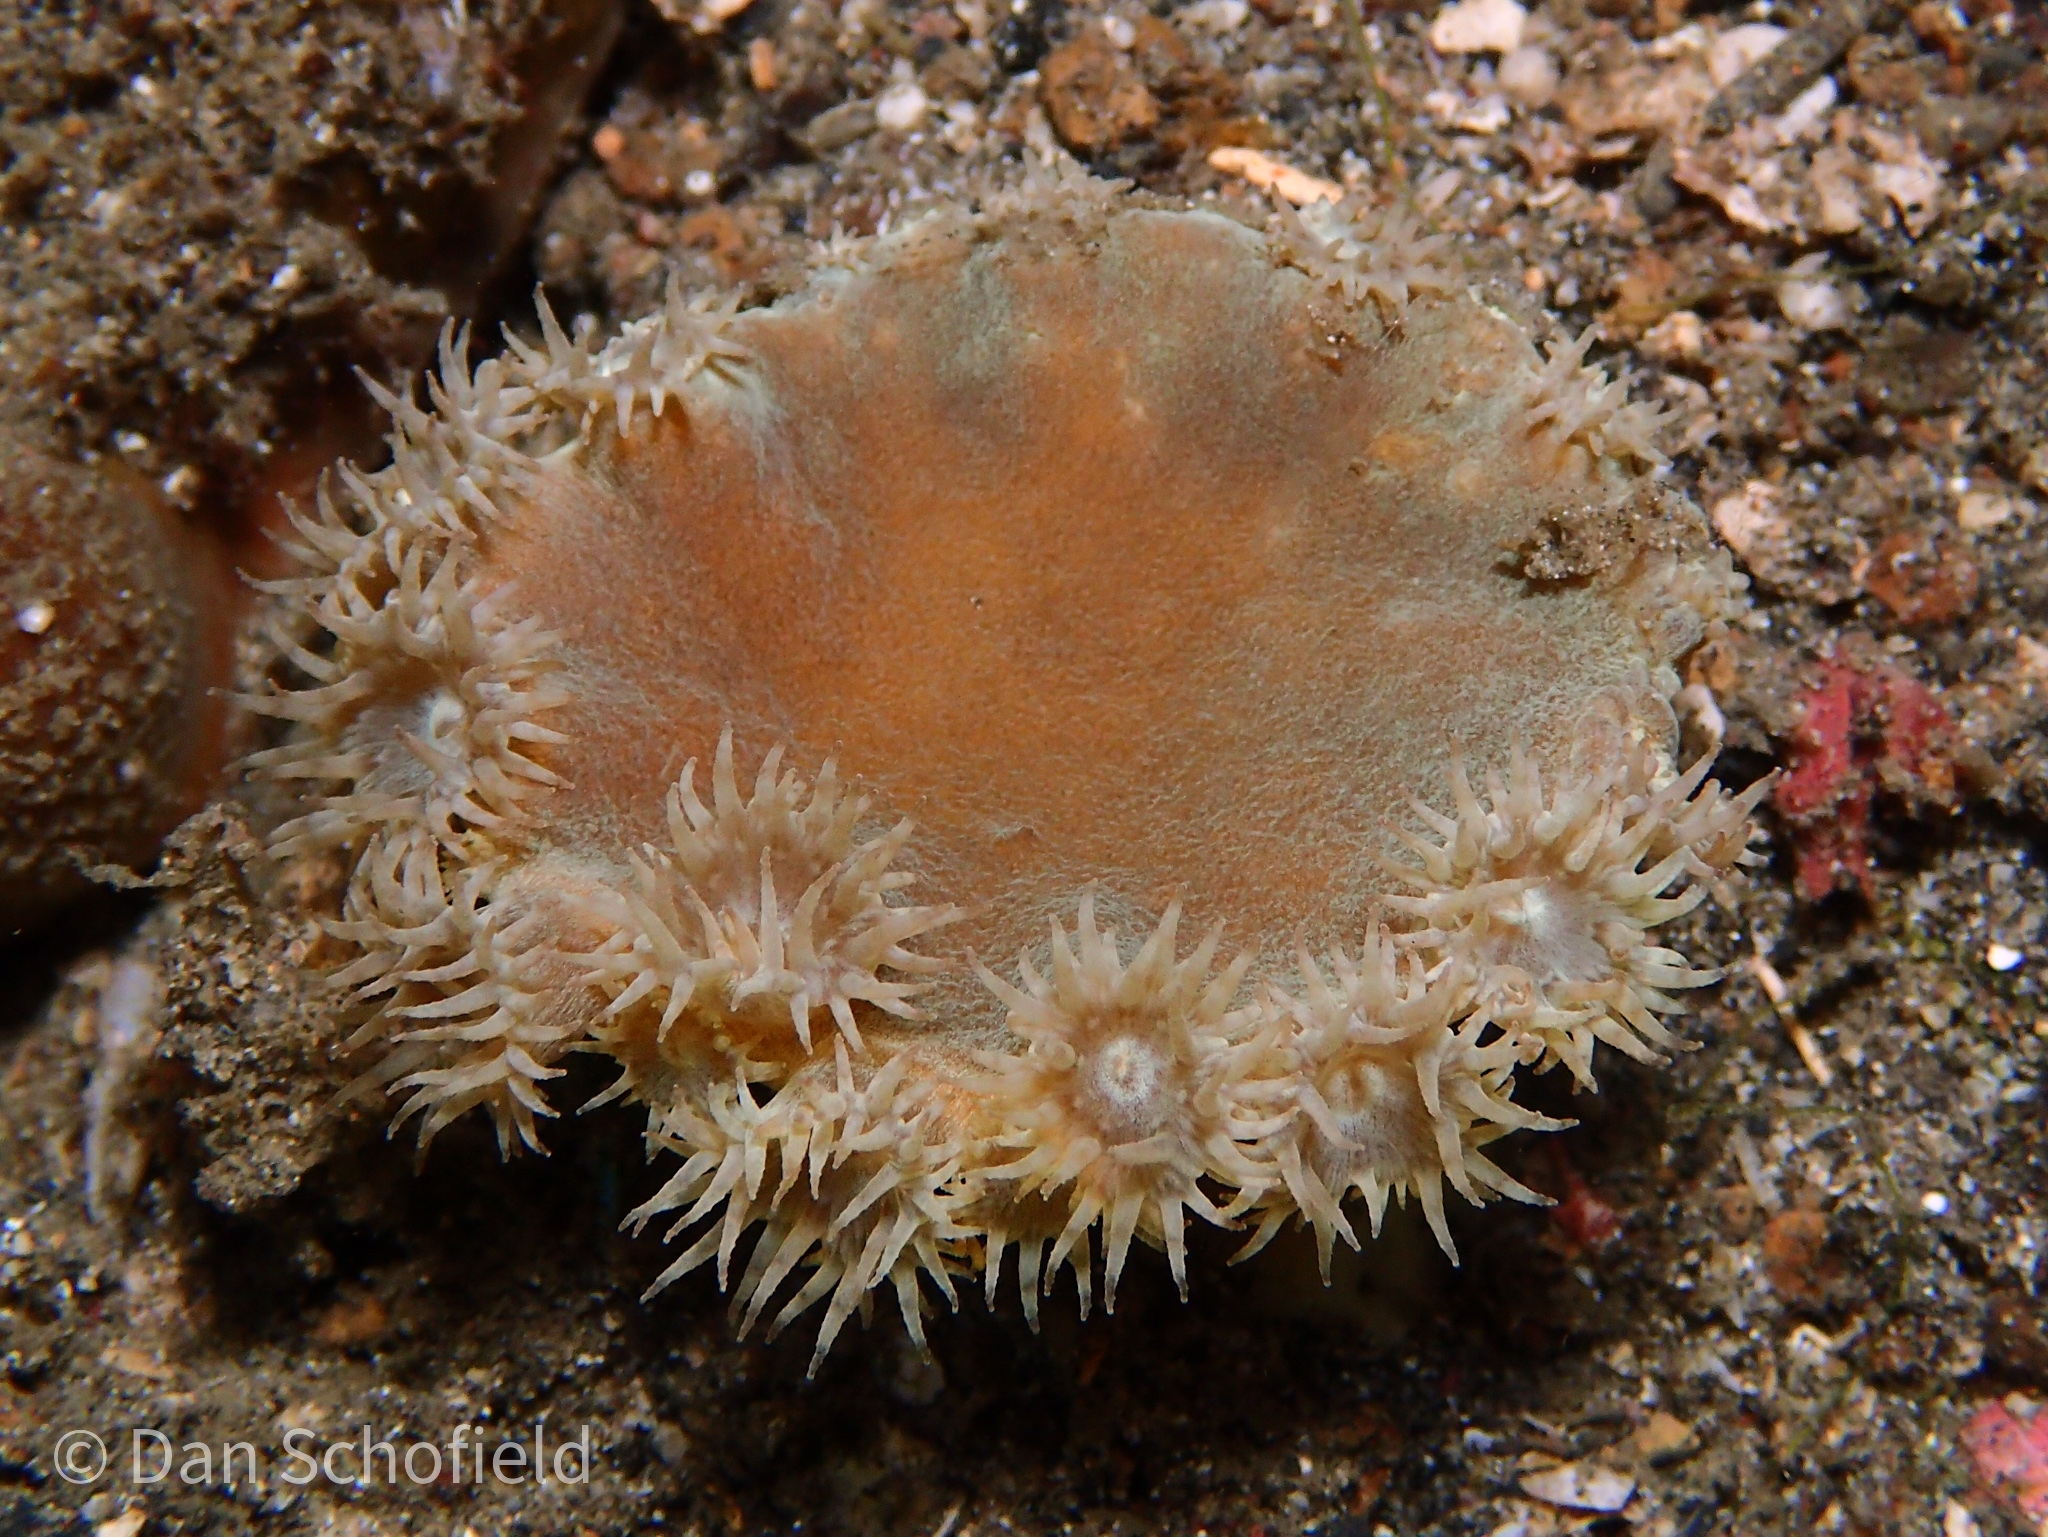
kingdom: Animalia
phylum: Cnidaria
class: Anthozoa
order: Scleractinia
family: Dendrophylliidae
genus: Duncanopsammia
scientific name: Duncanopsammia peltata
